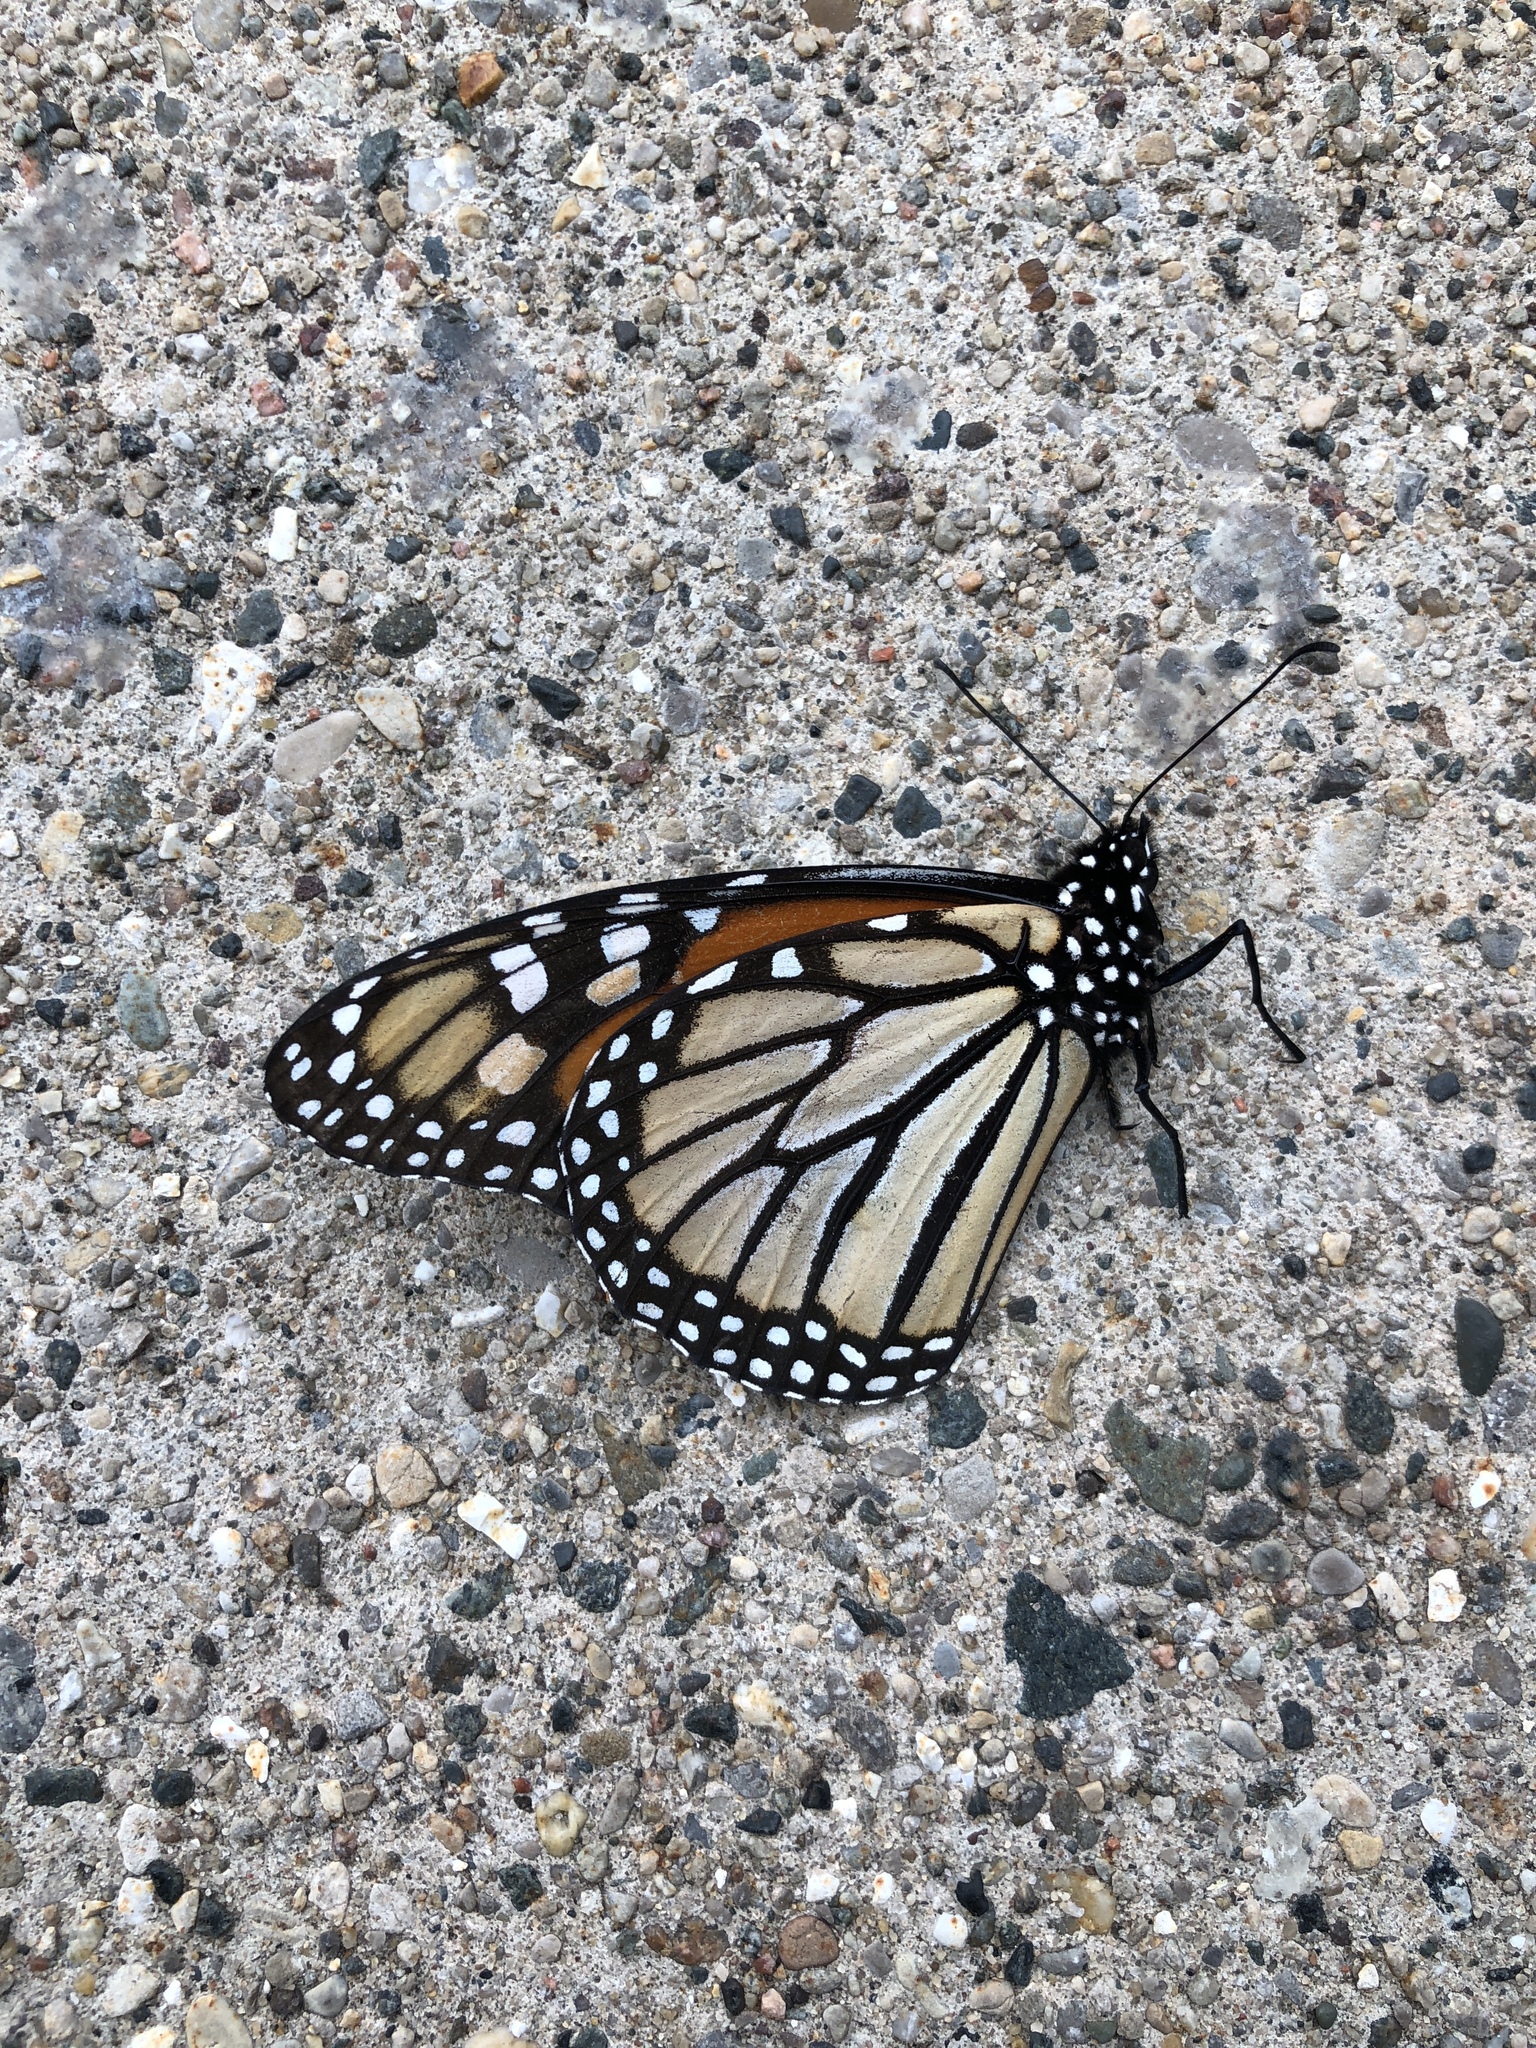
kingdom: Animalia
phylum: Arthropoda
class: Insecta
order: Lepidoptera
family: Nymphalidae
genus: Danaus
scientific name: Danaus plexippus
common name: Monarch
